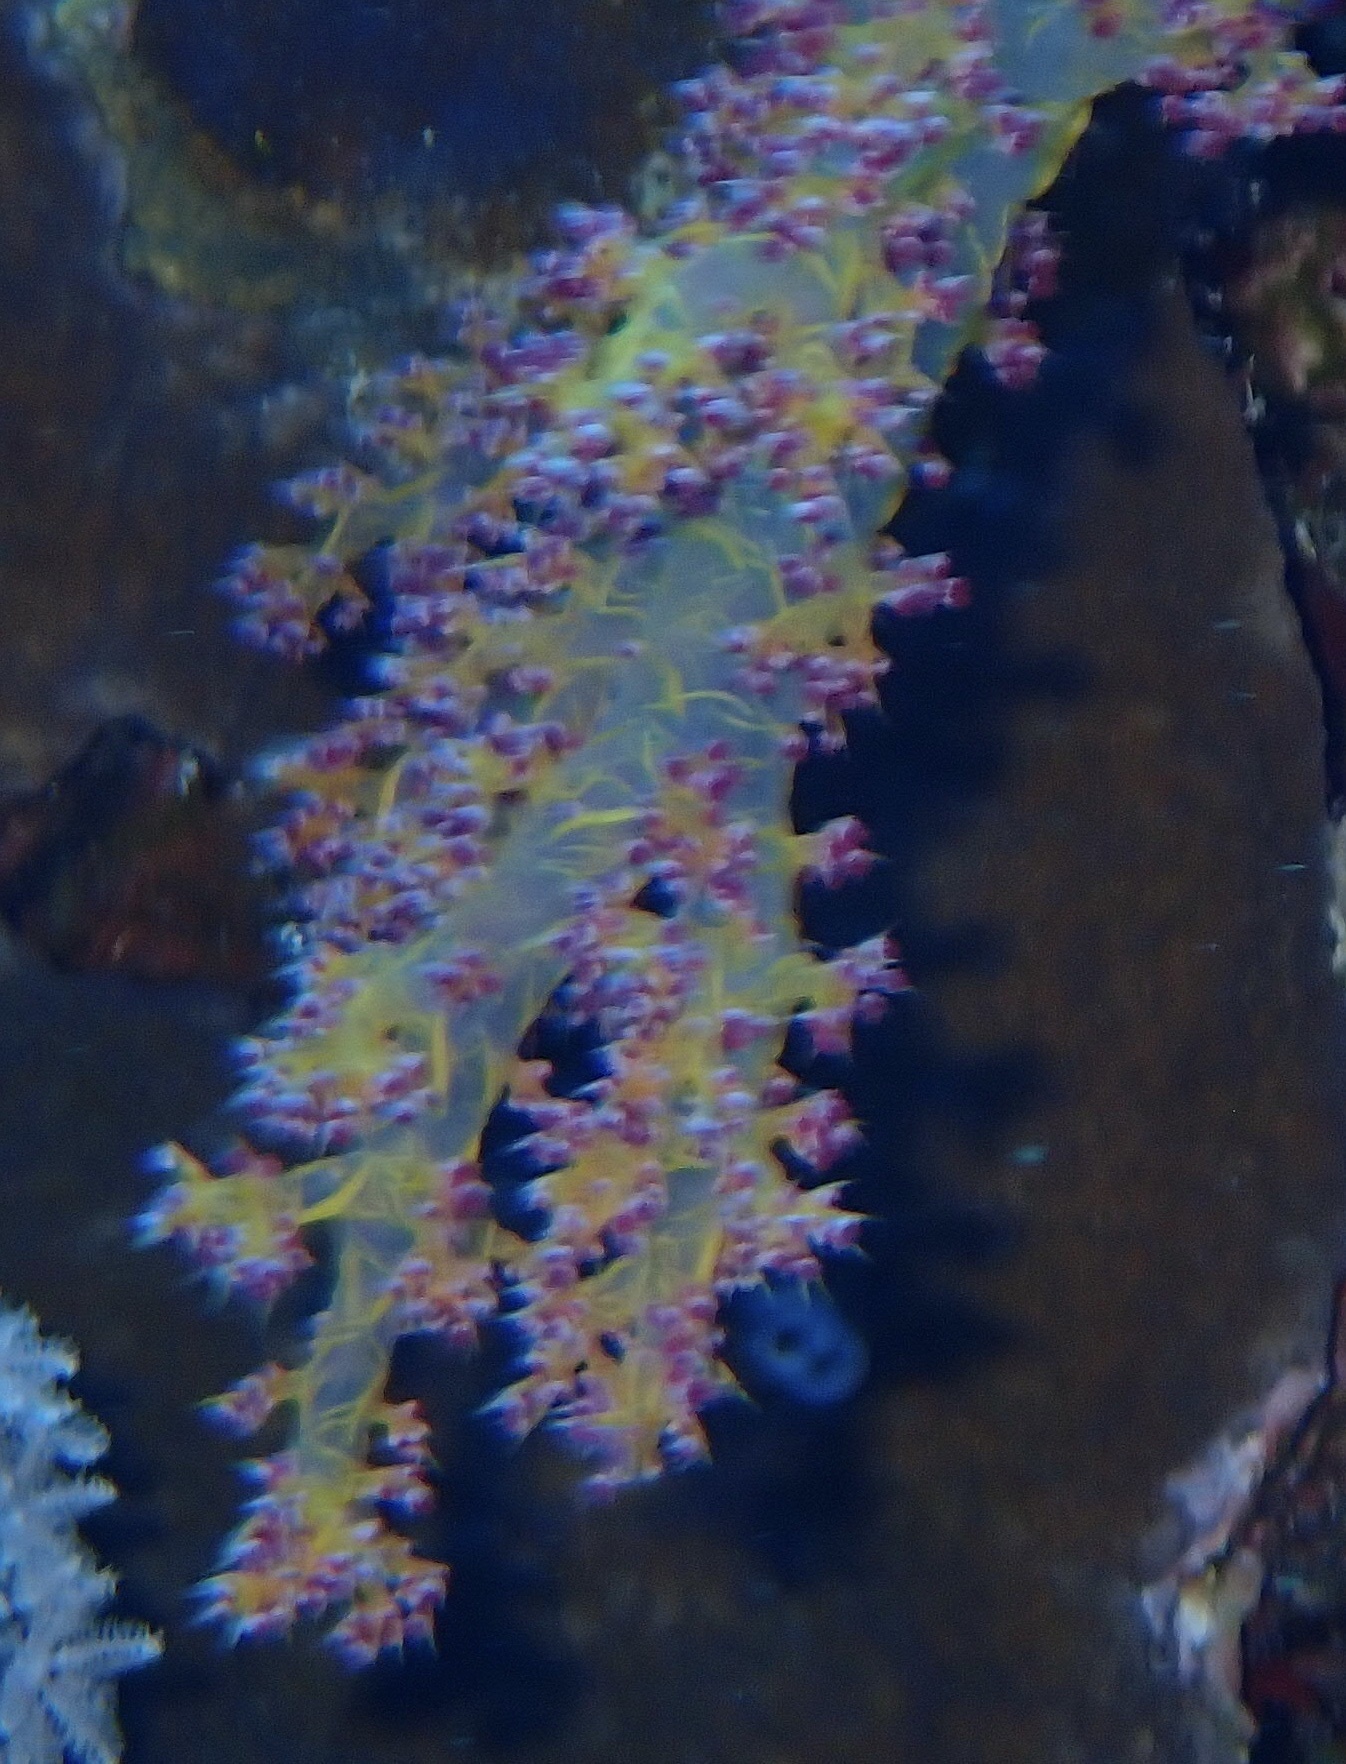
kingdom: Animalia
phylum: Cnidaria
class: Anthozoa
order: Malacalcyonacea
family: Nephtheidae
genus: Dendronephthya
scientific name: Dendronephthya hemprichi
